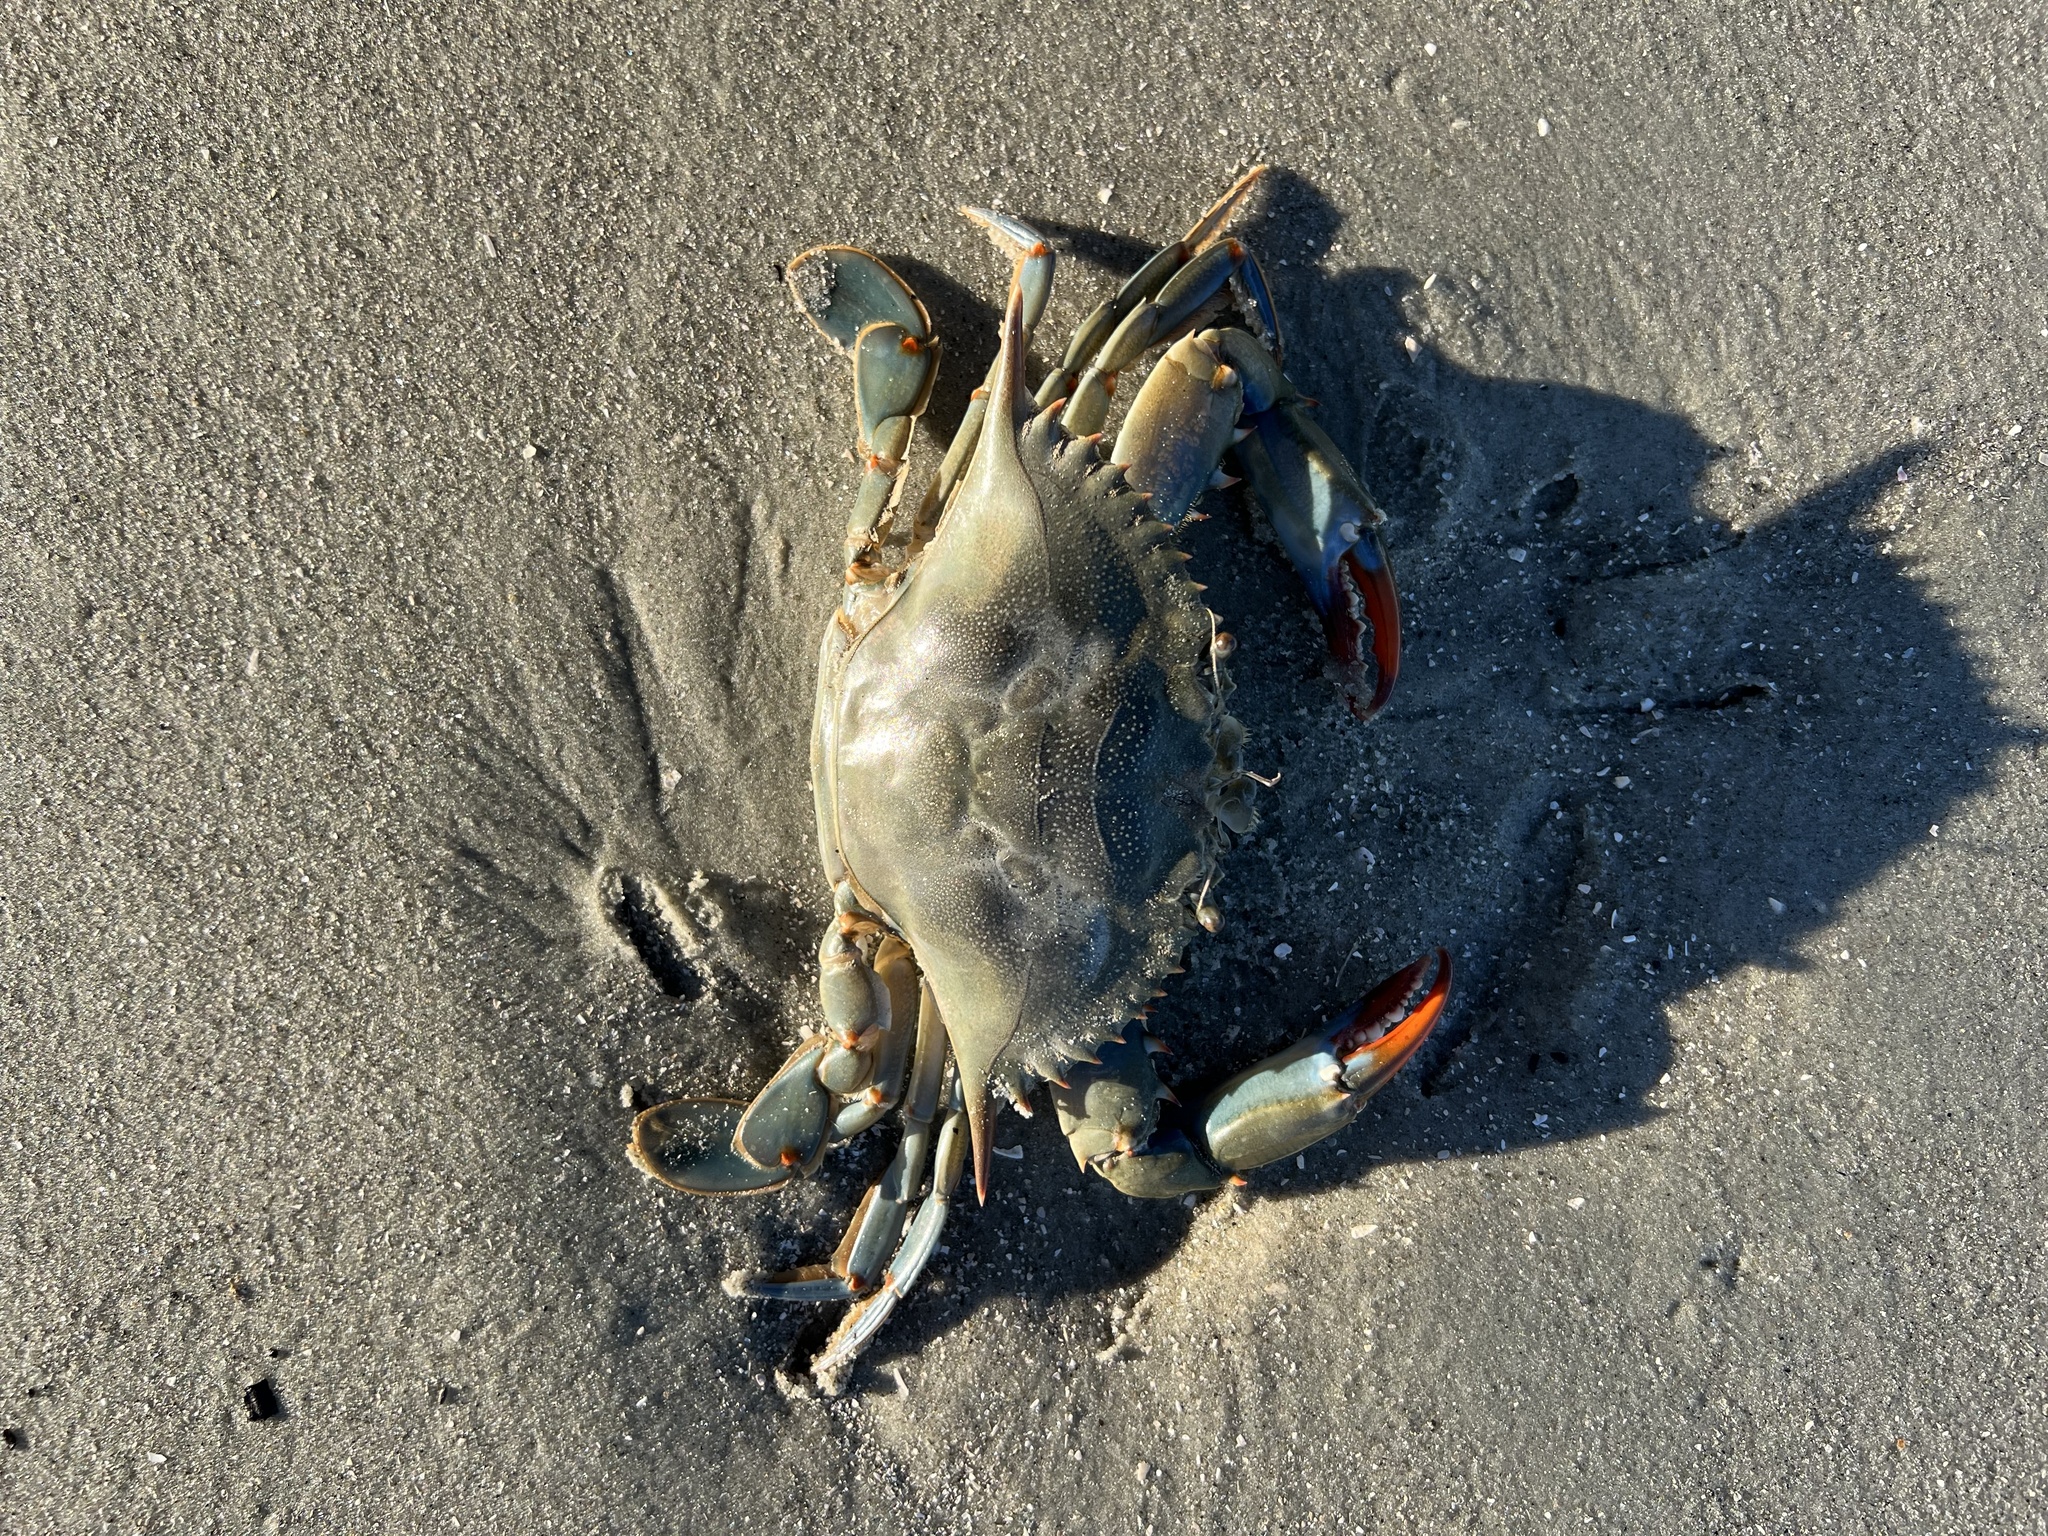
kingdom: Animalia
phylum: Arthropoda
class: Malacostraca
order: Decapoda
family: Portunidae
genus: Callinectes
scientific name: Callinectes sapidus
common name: Blue crab
